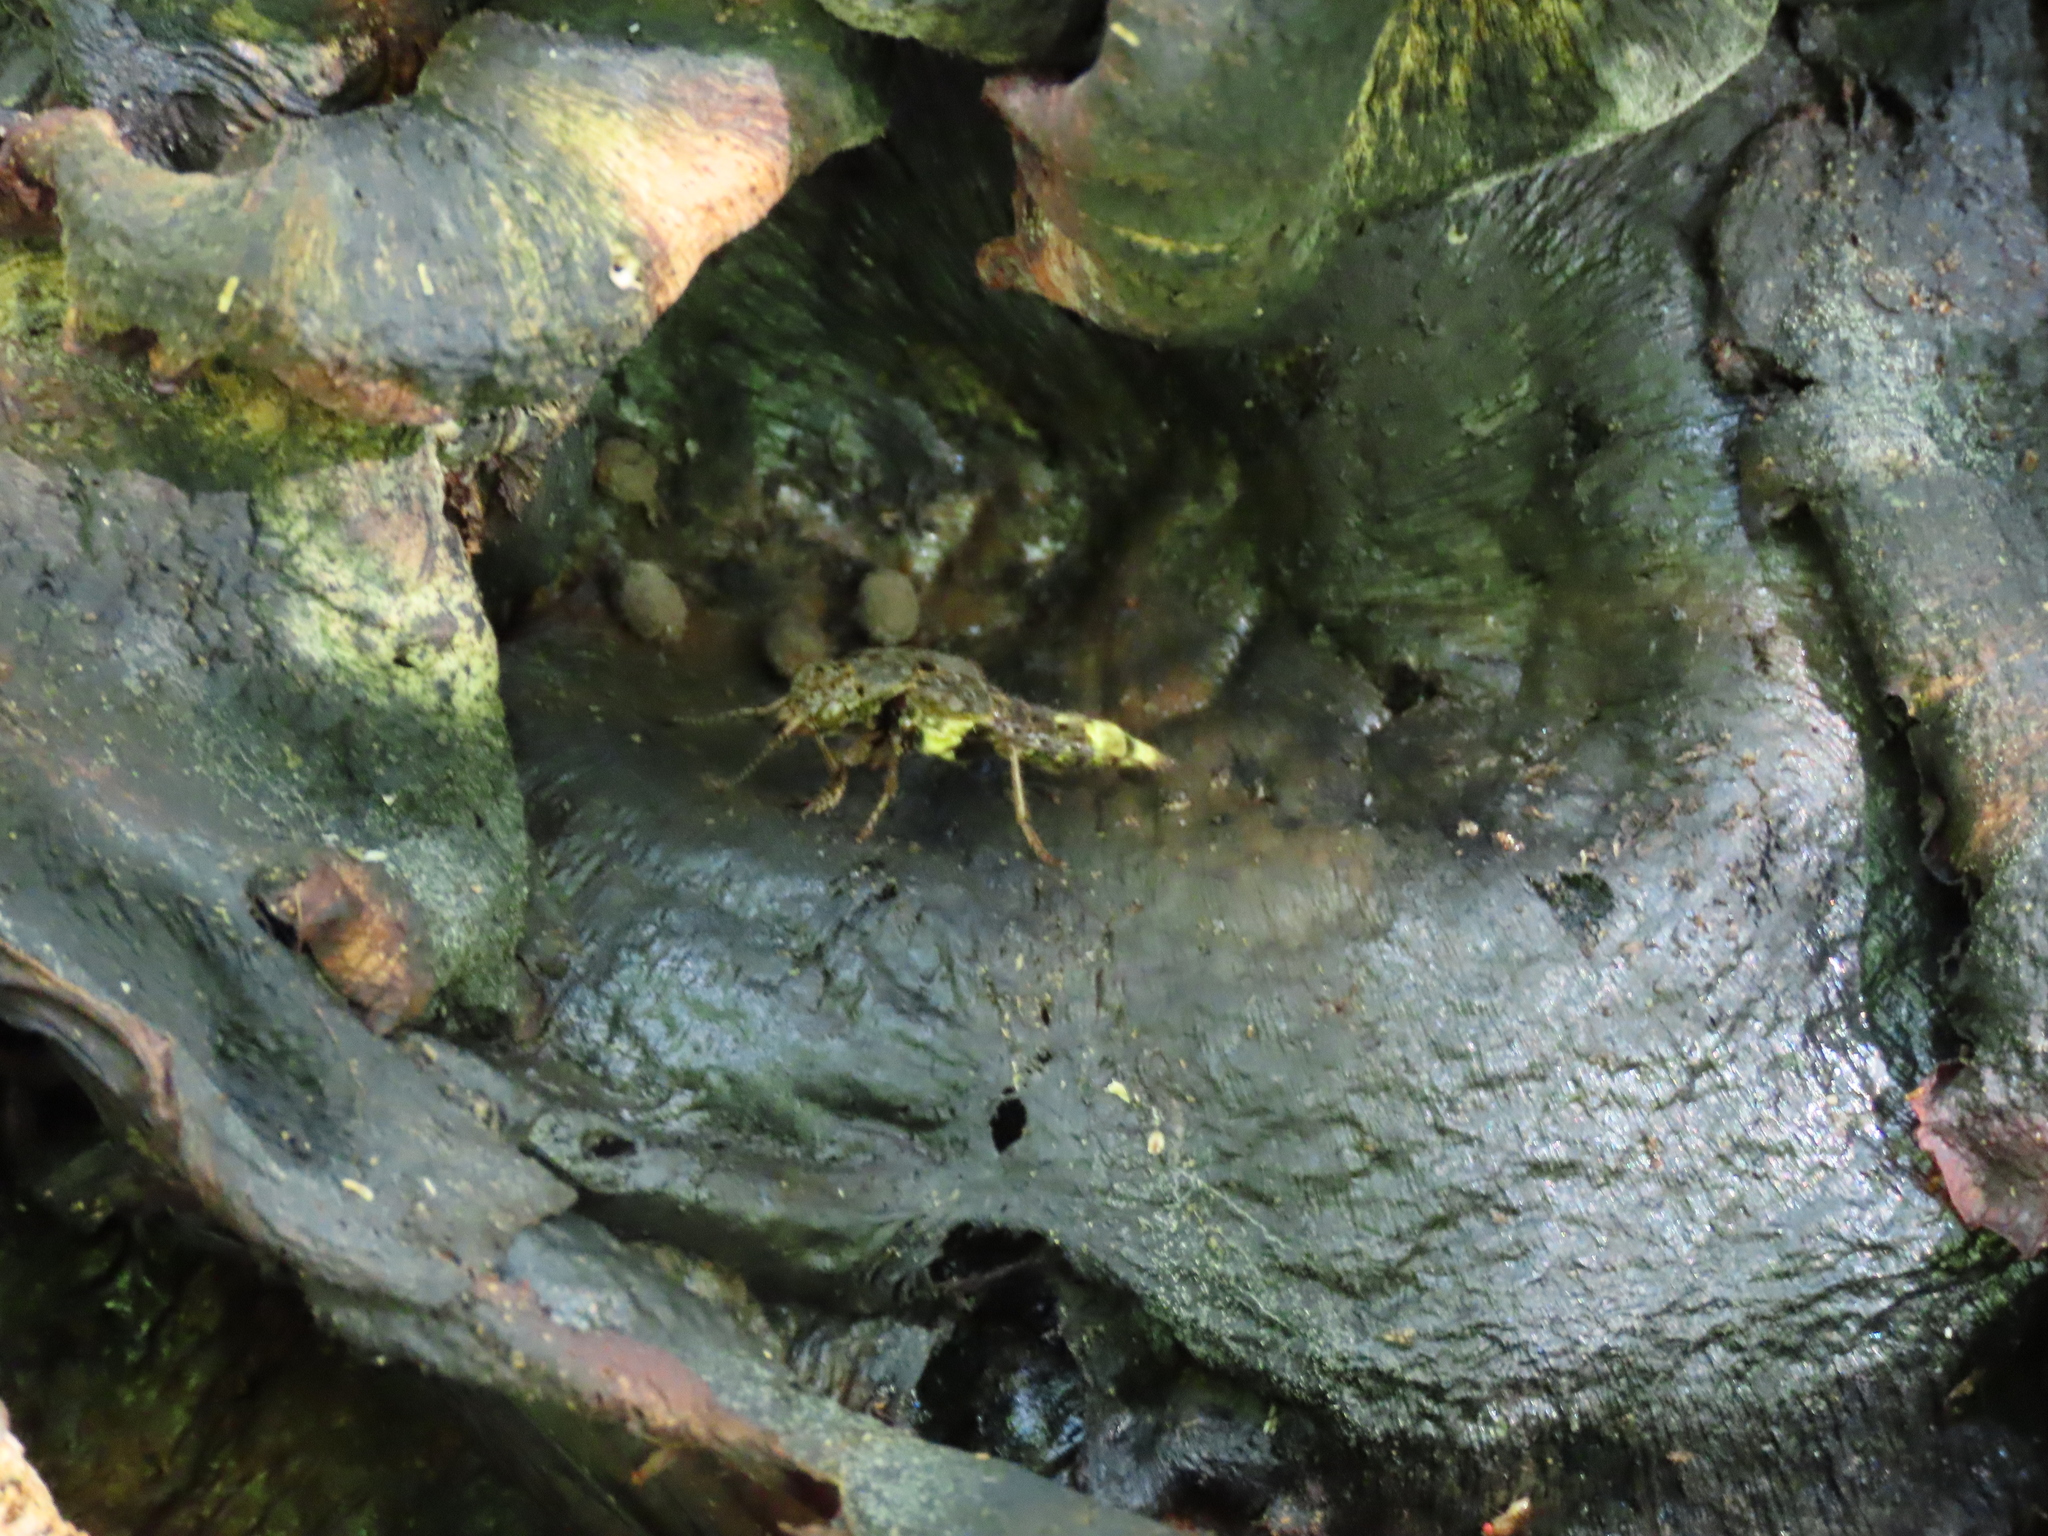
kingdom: Animalia
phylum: Arthropoda
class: Insecta
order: Coleoptera
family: Staphylinidae
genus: Ontholestes
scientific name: Ontholestes cingulatus
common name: Gold-and-brown rove beetle
